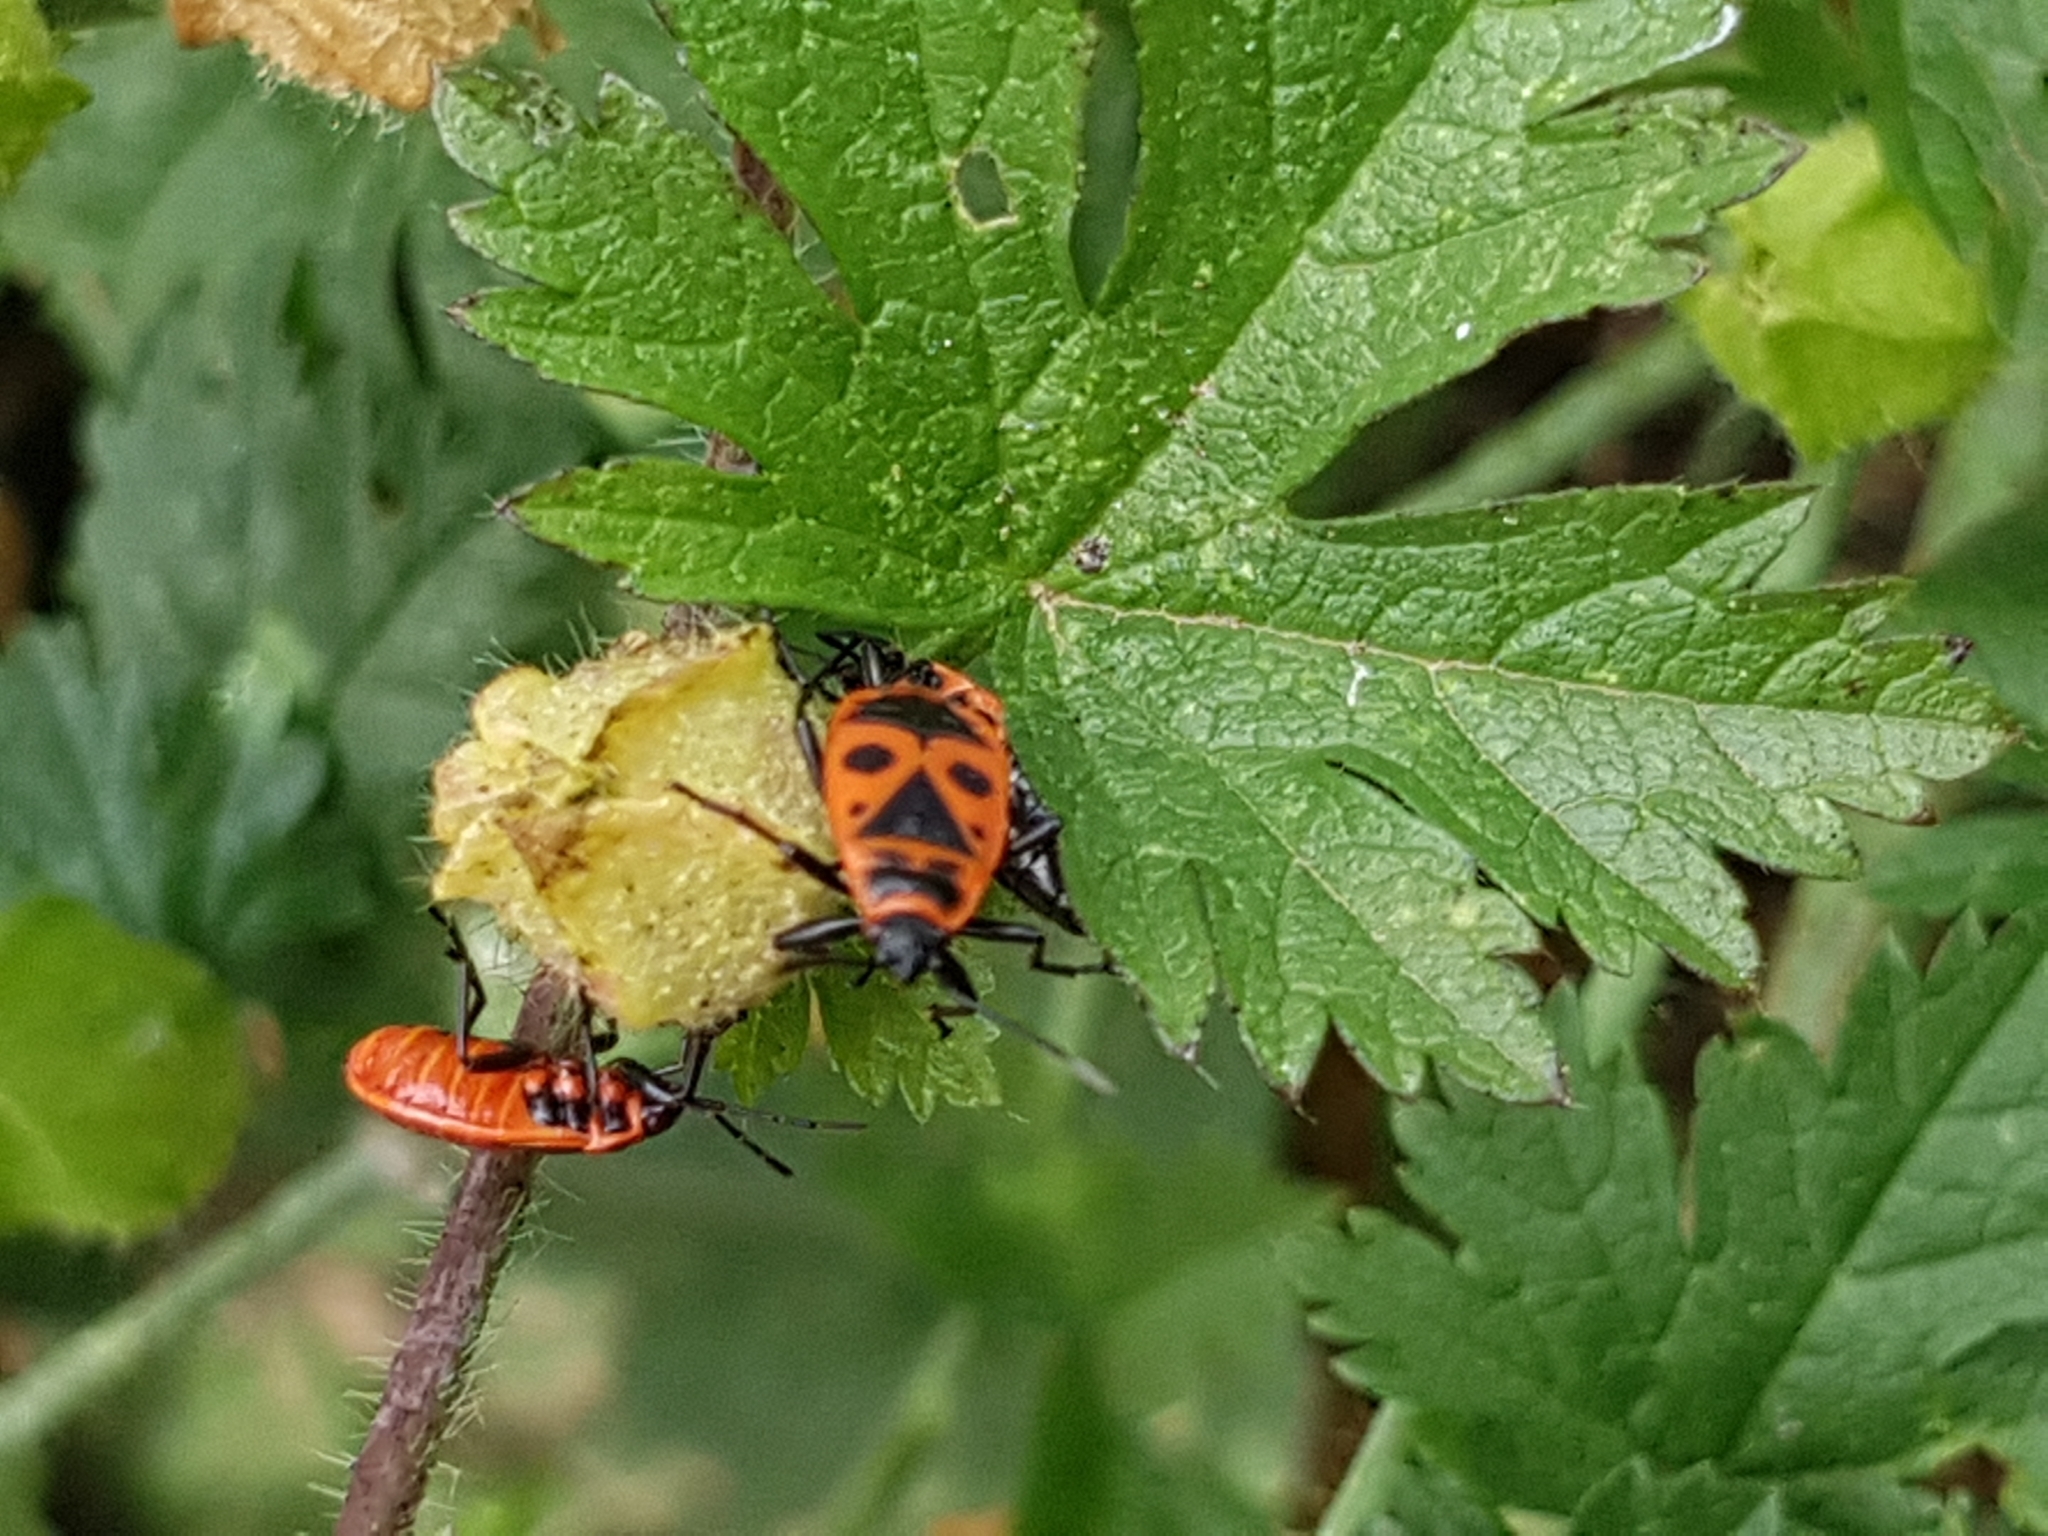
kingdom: Animalia
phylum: Arthropoda
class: Insecta
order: Hemiptera
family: Pyrrhocoridae
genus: Pyrrhocoris
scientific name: Pyrrhocoris apterus
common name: Firebug
